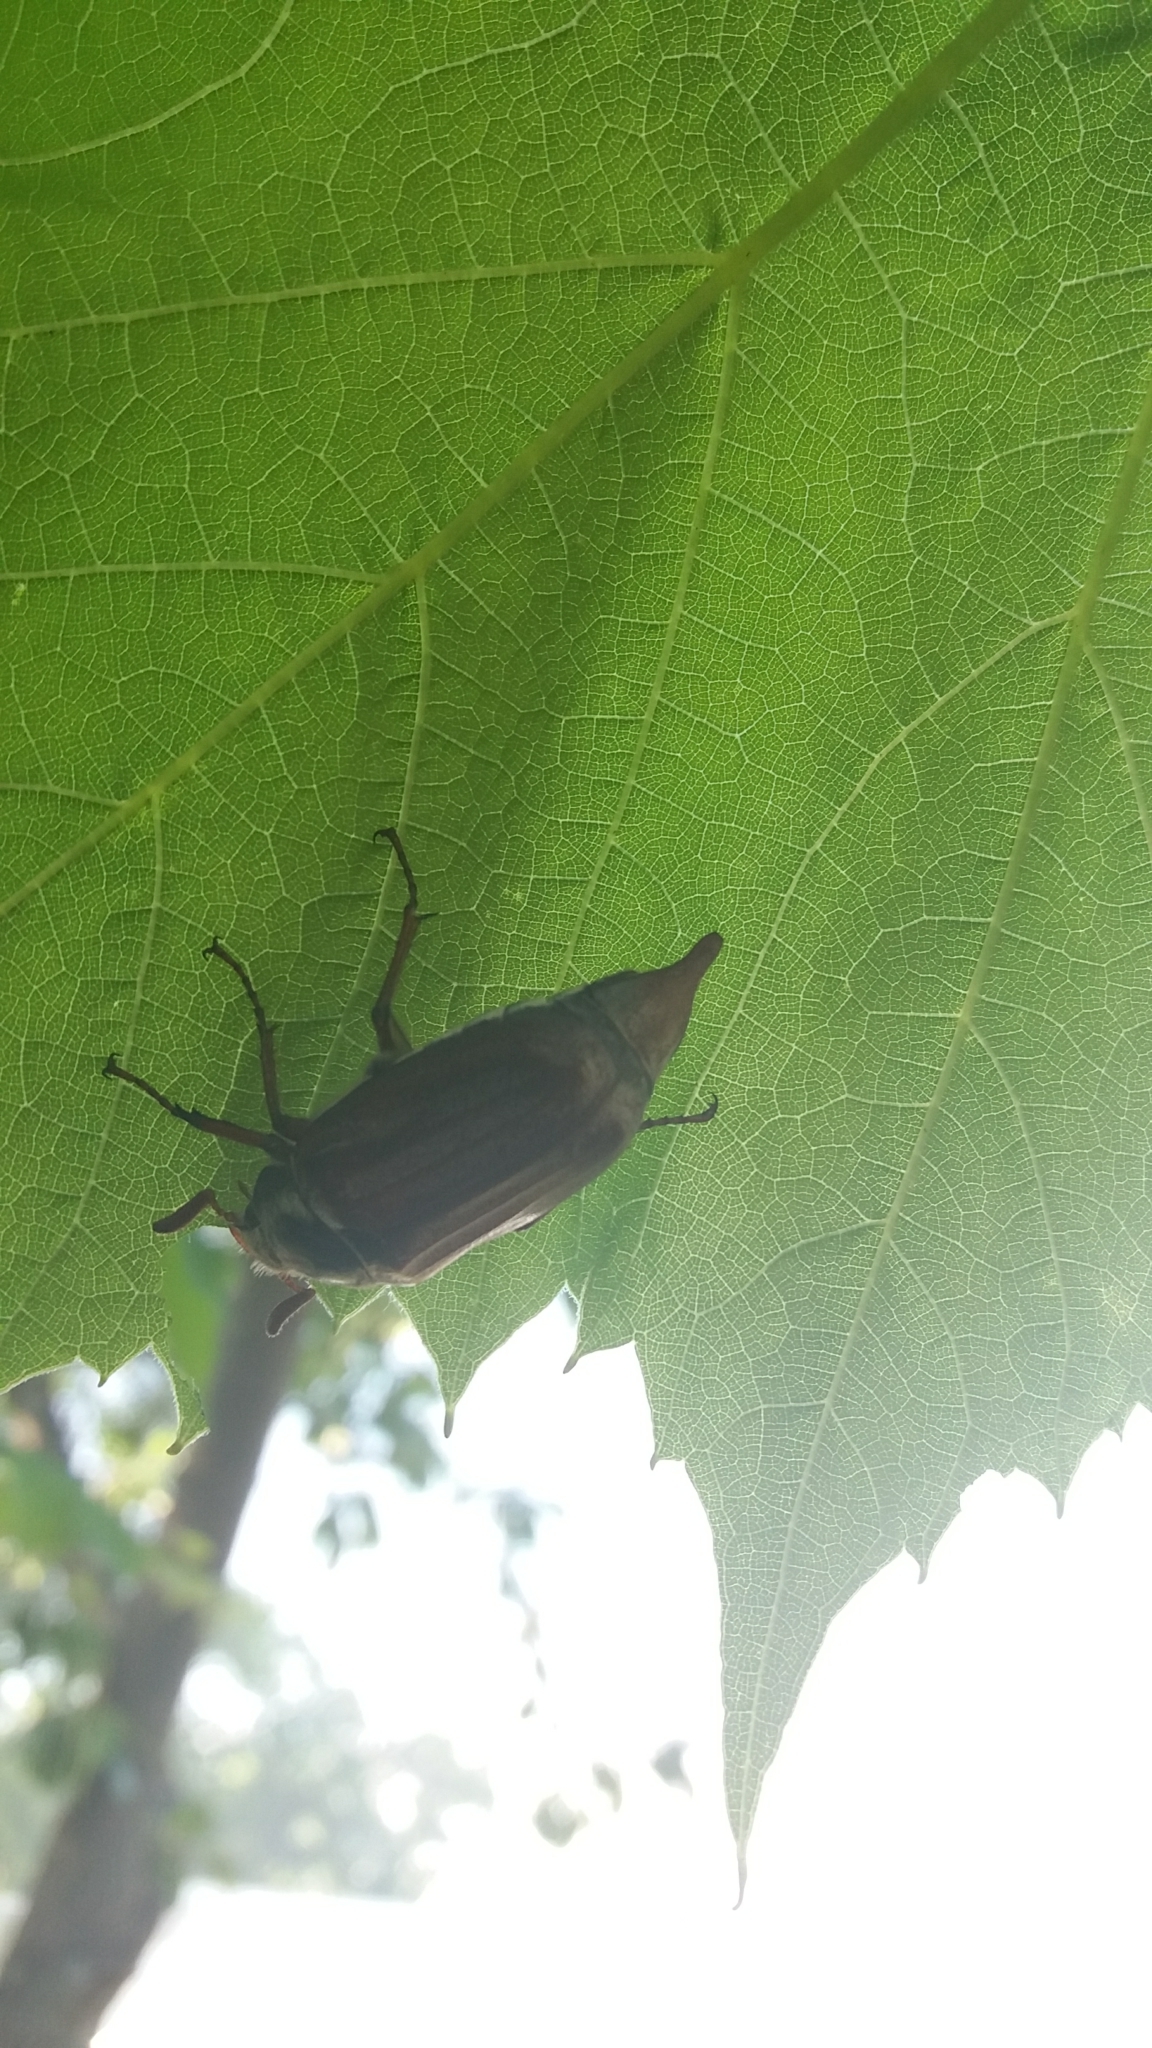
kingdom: Animalia
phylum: Arthropoda
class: Insecta
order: Coleoptera
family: Scarabaeidae
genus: Melolontha
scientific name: Melolontha melolontha
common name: Cockchafer maybeetle
